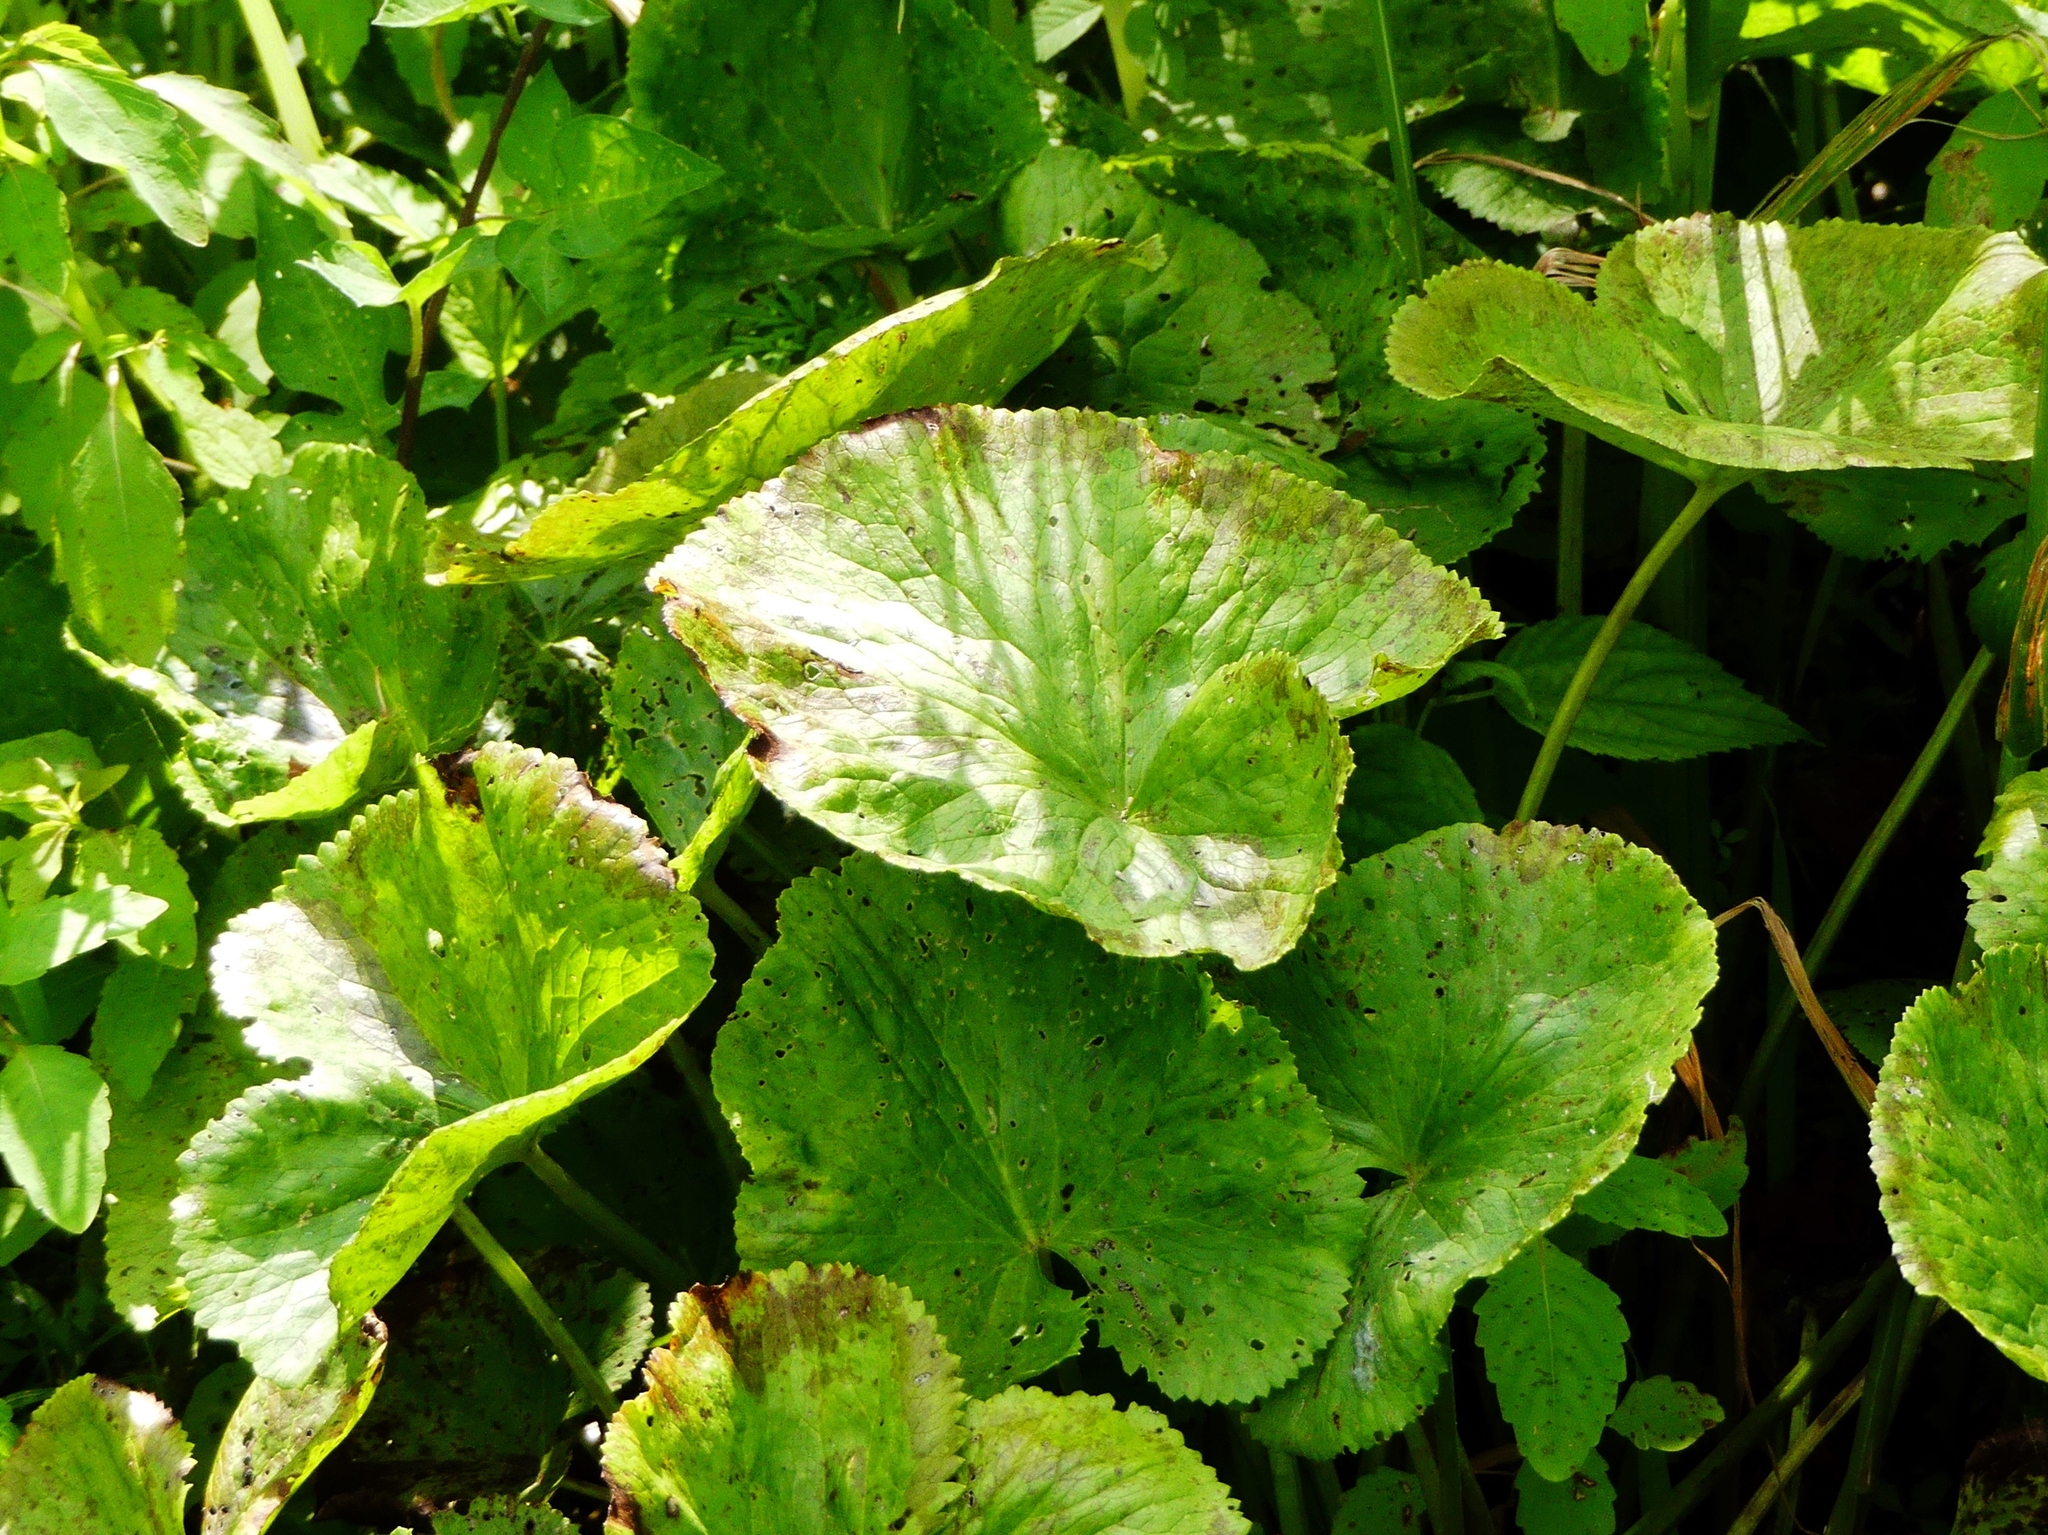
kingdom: Plantae
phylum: Tracheophyta
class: Magnoliopsida
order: Ranunculales
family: Ranunculaceae
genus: Caltha
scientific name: Caltha palustris
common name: Marsh marigold
